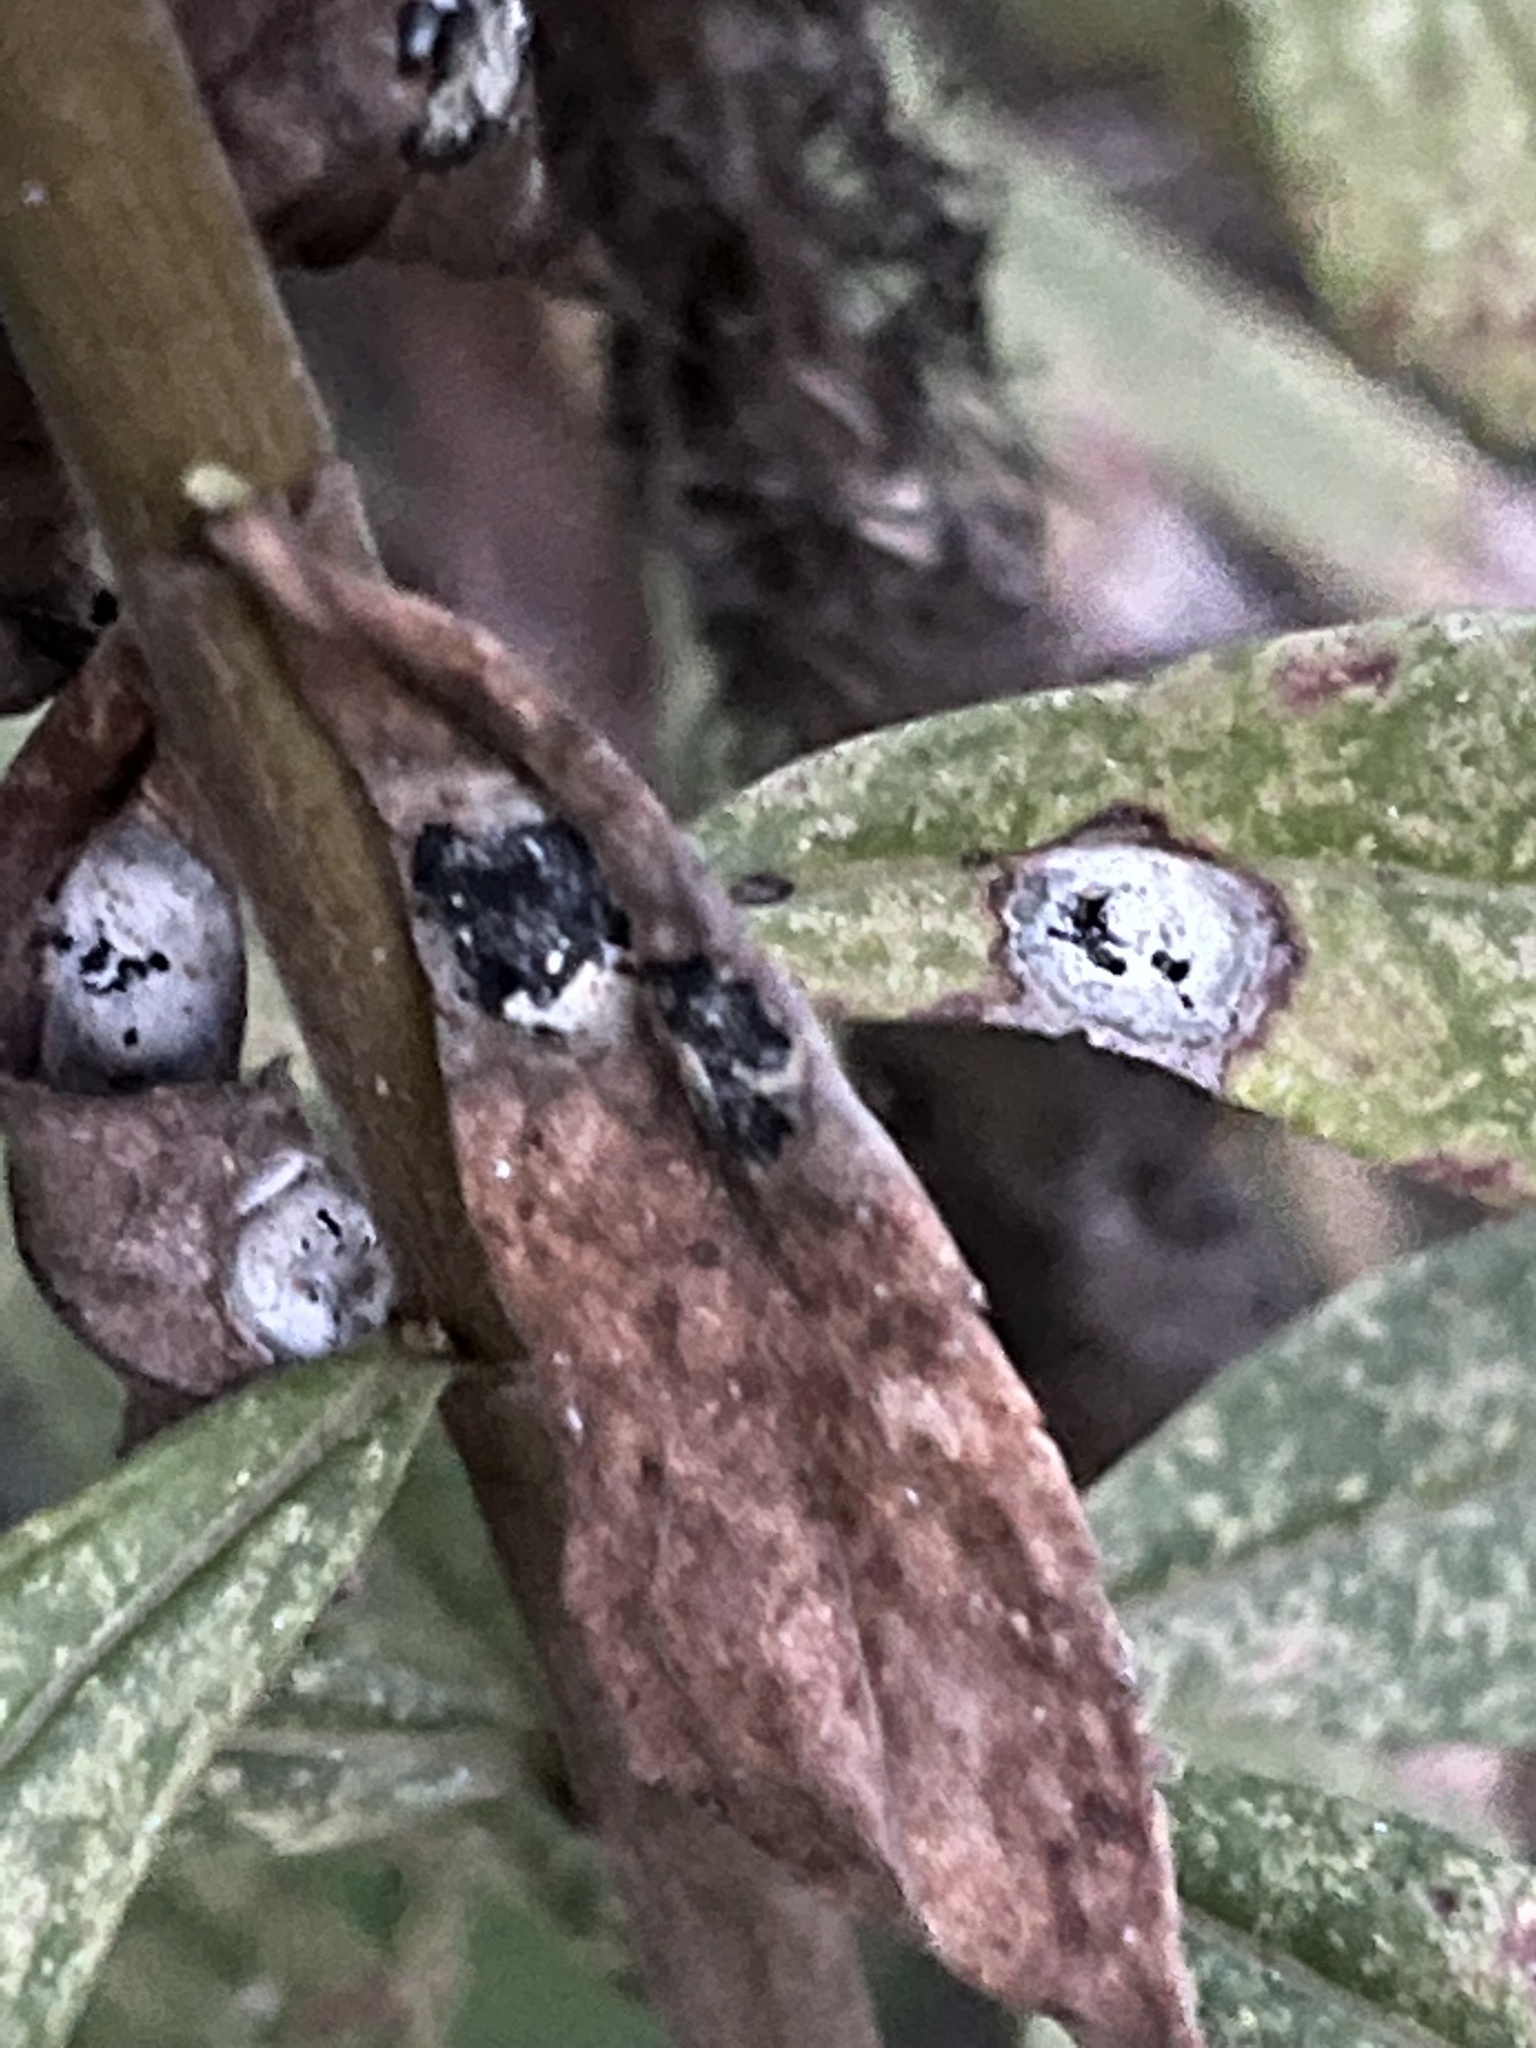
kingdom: Animalia
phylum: Arthropoda
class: Insecta
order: Diptera
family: Cecidomyiidae
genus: Asteromyia
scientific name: Asteromyia carbonifera
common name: Carbonifera goldenrod gall midge
